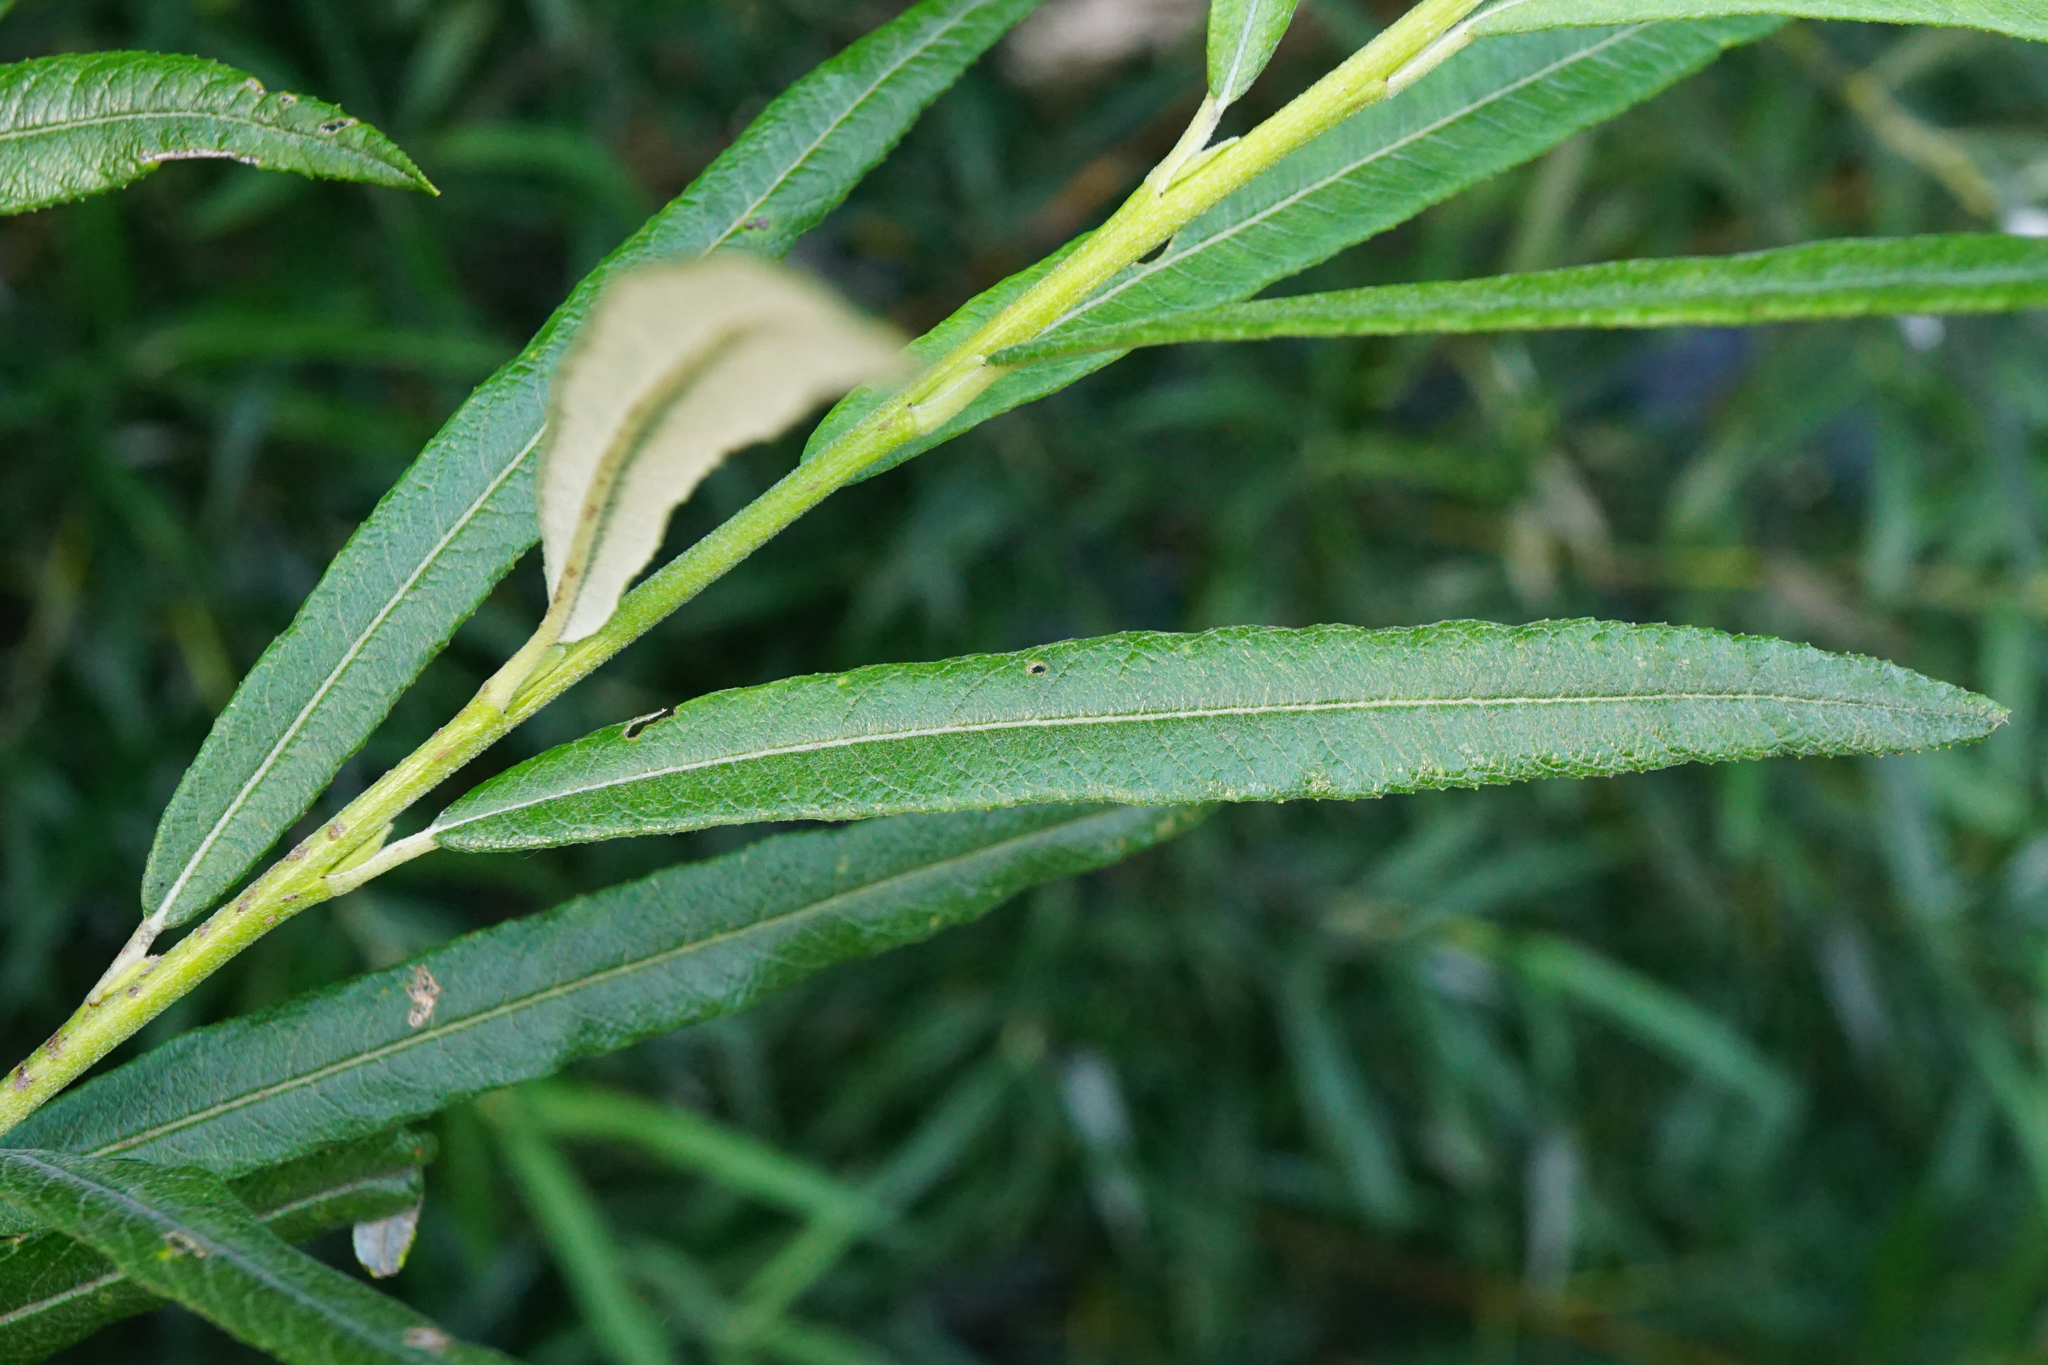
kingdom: Plantae
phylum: Tracheophyta
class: Magnoliopsida
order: Malpighiales
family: Salicaceae
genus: Salix
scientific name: Salix eleagnos
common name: Elaeagnus willow
